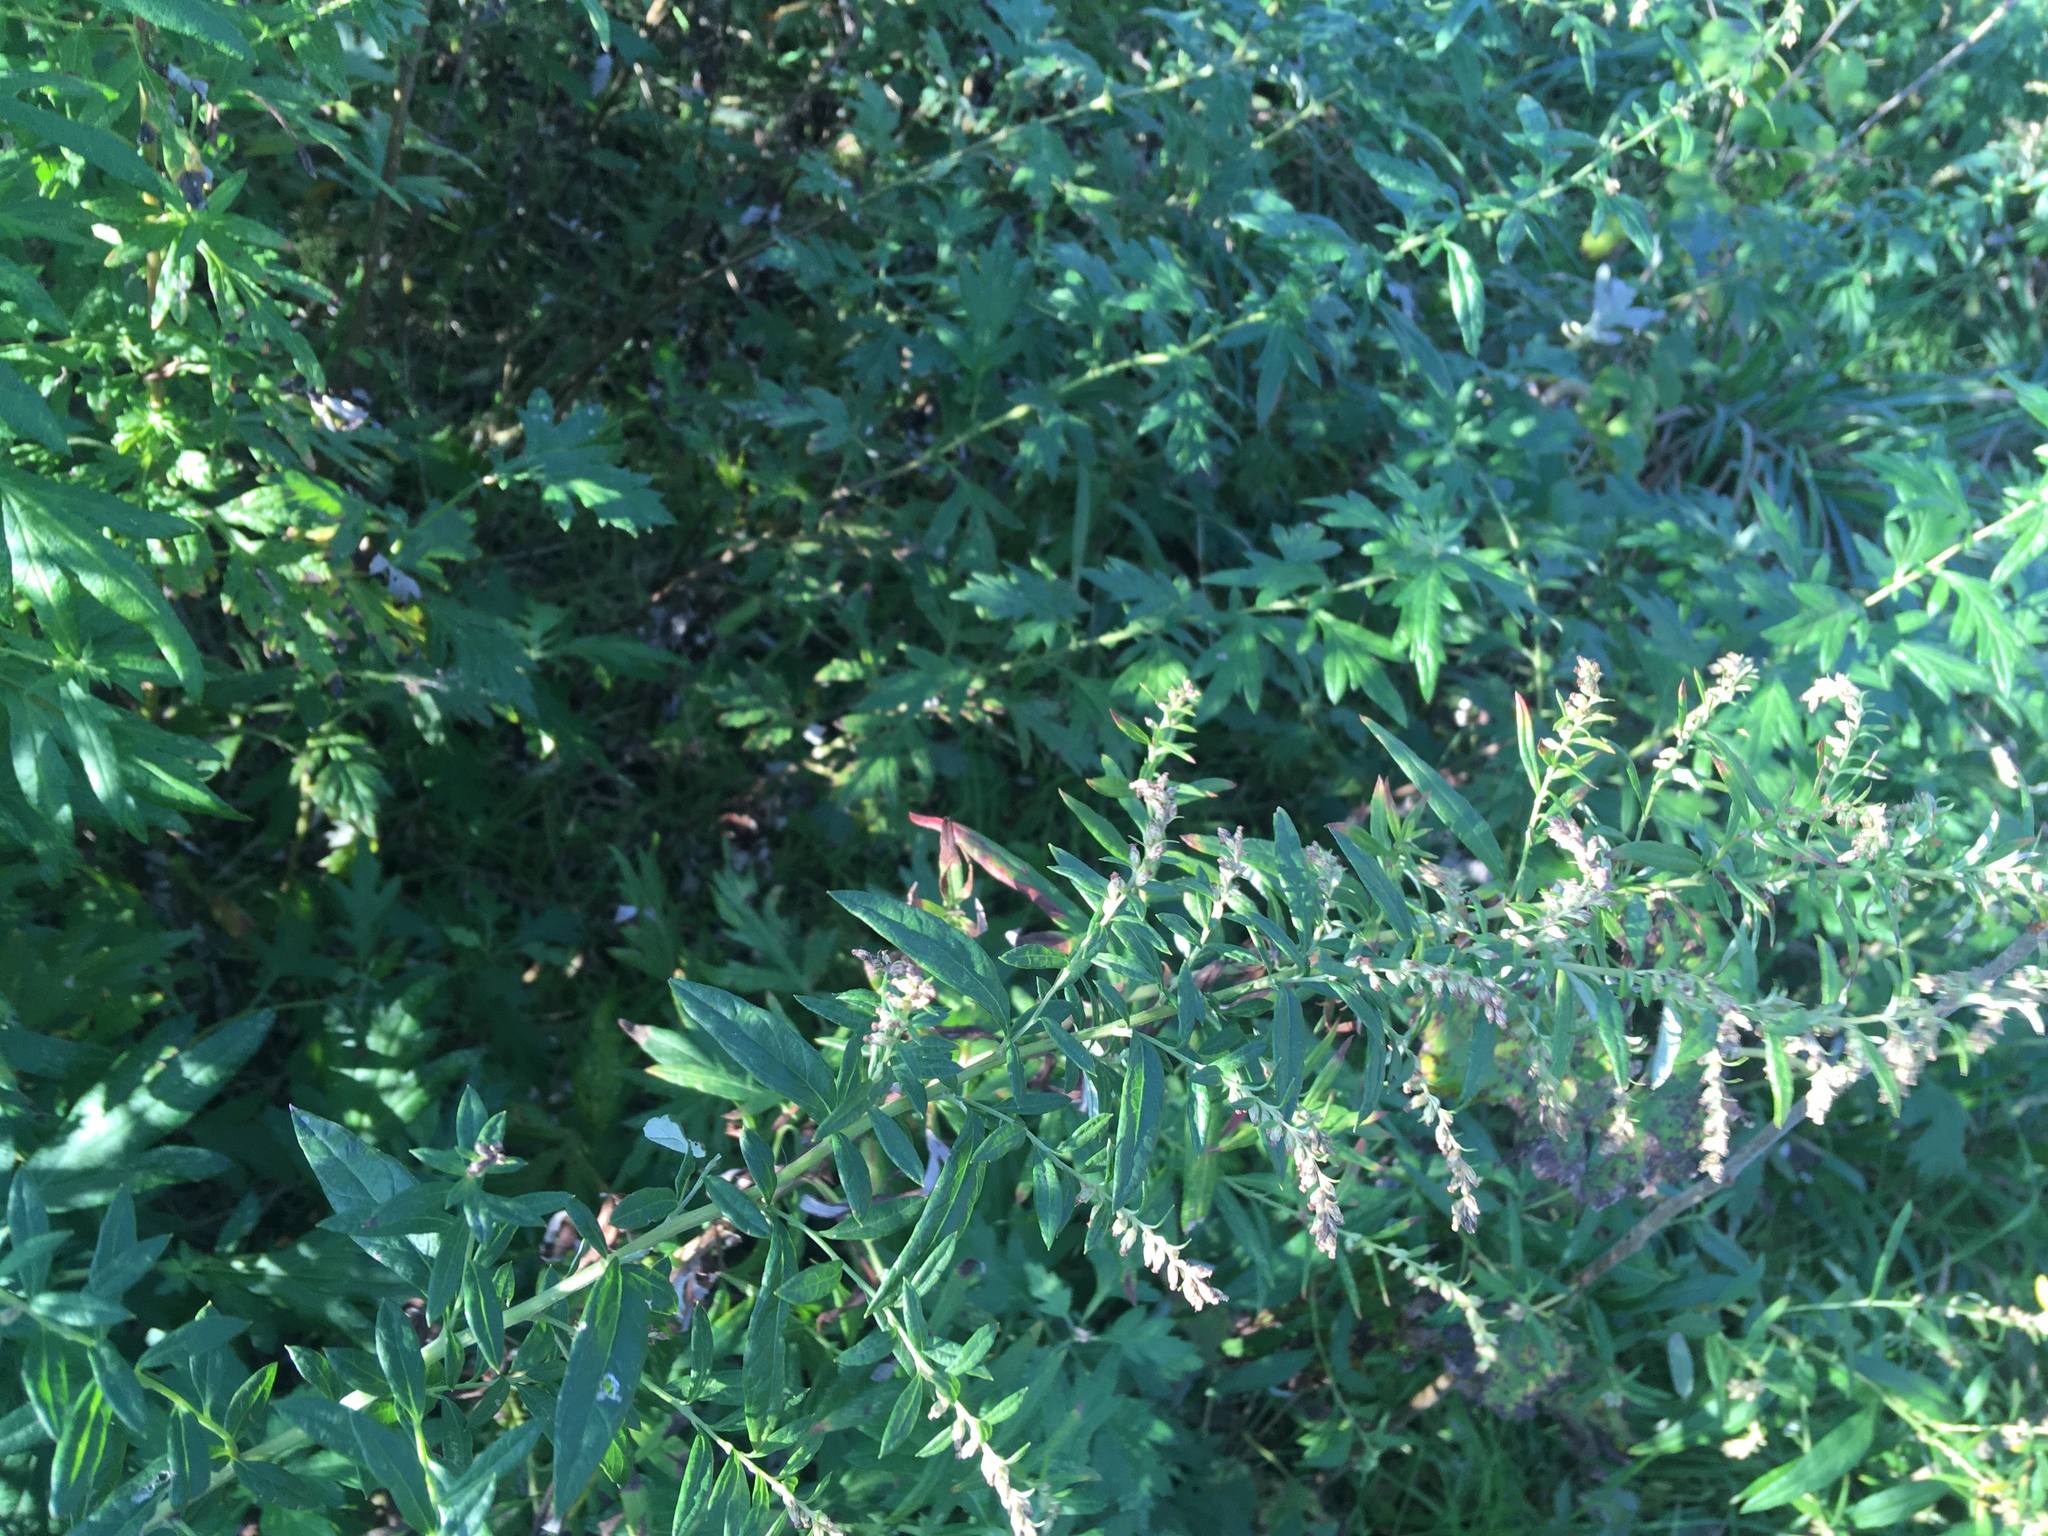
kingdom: Plantae
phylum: Tracheophyta
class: Magnoliopsida
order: Asterales
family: Asteraceae
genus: Artemisia
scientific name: Artemisia vulgaris
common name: Mugwort
